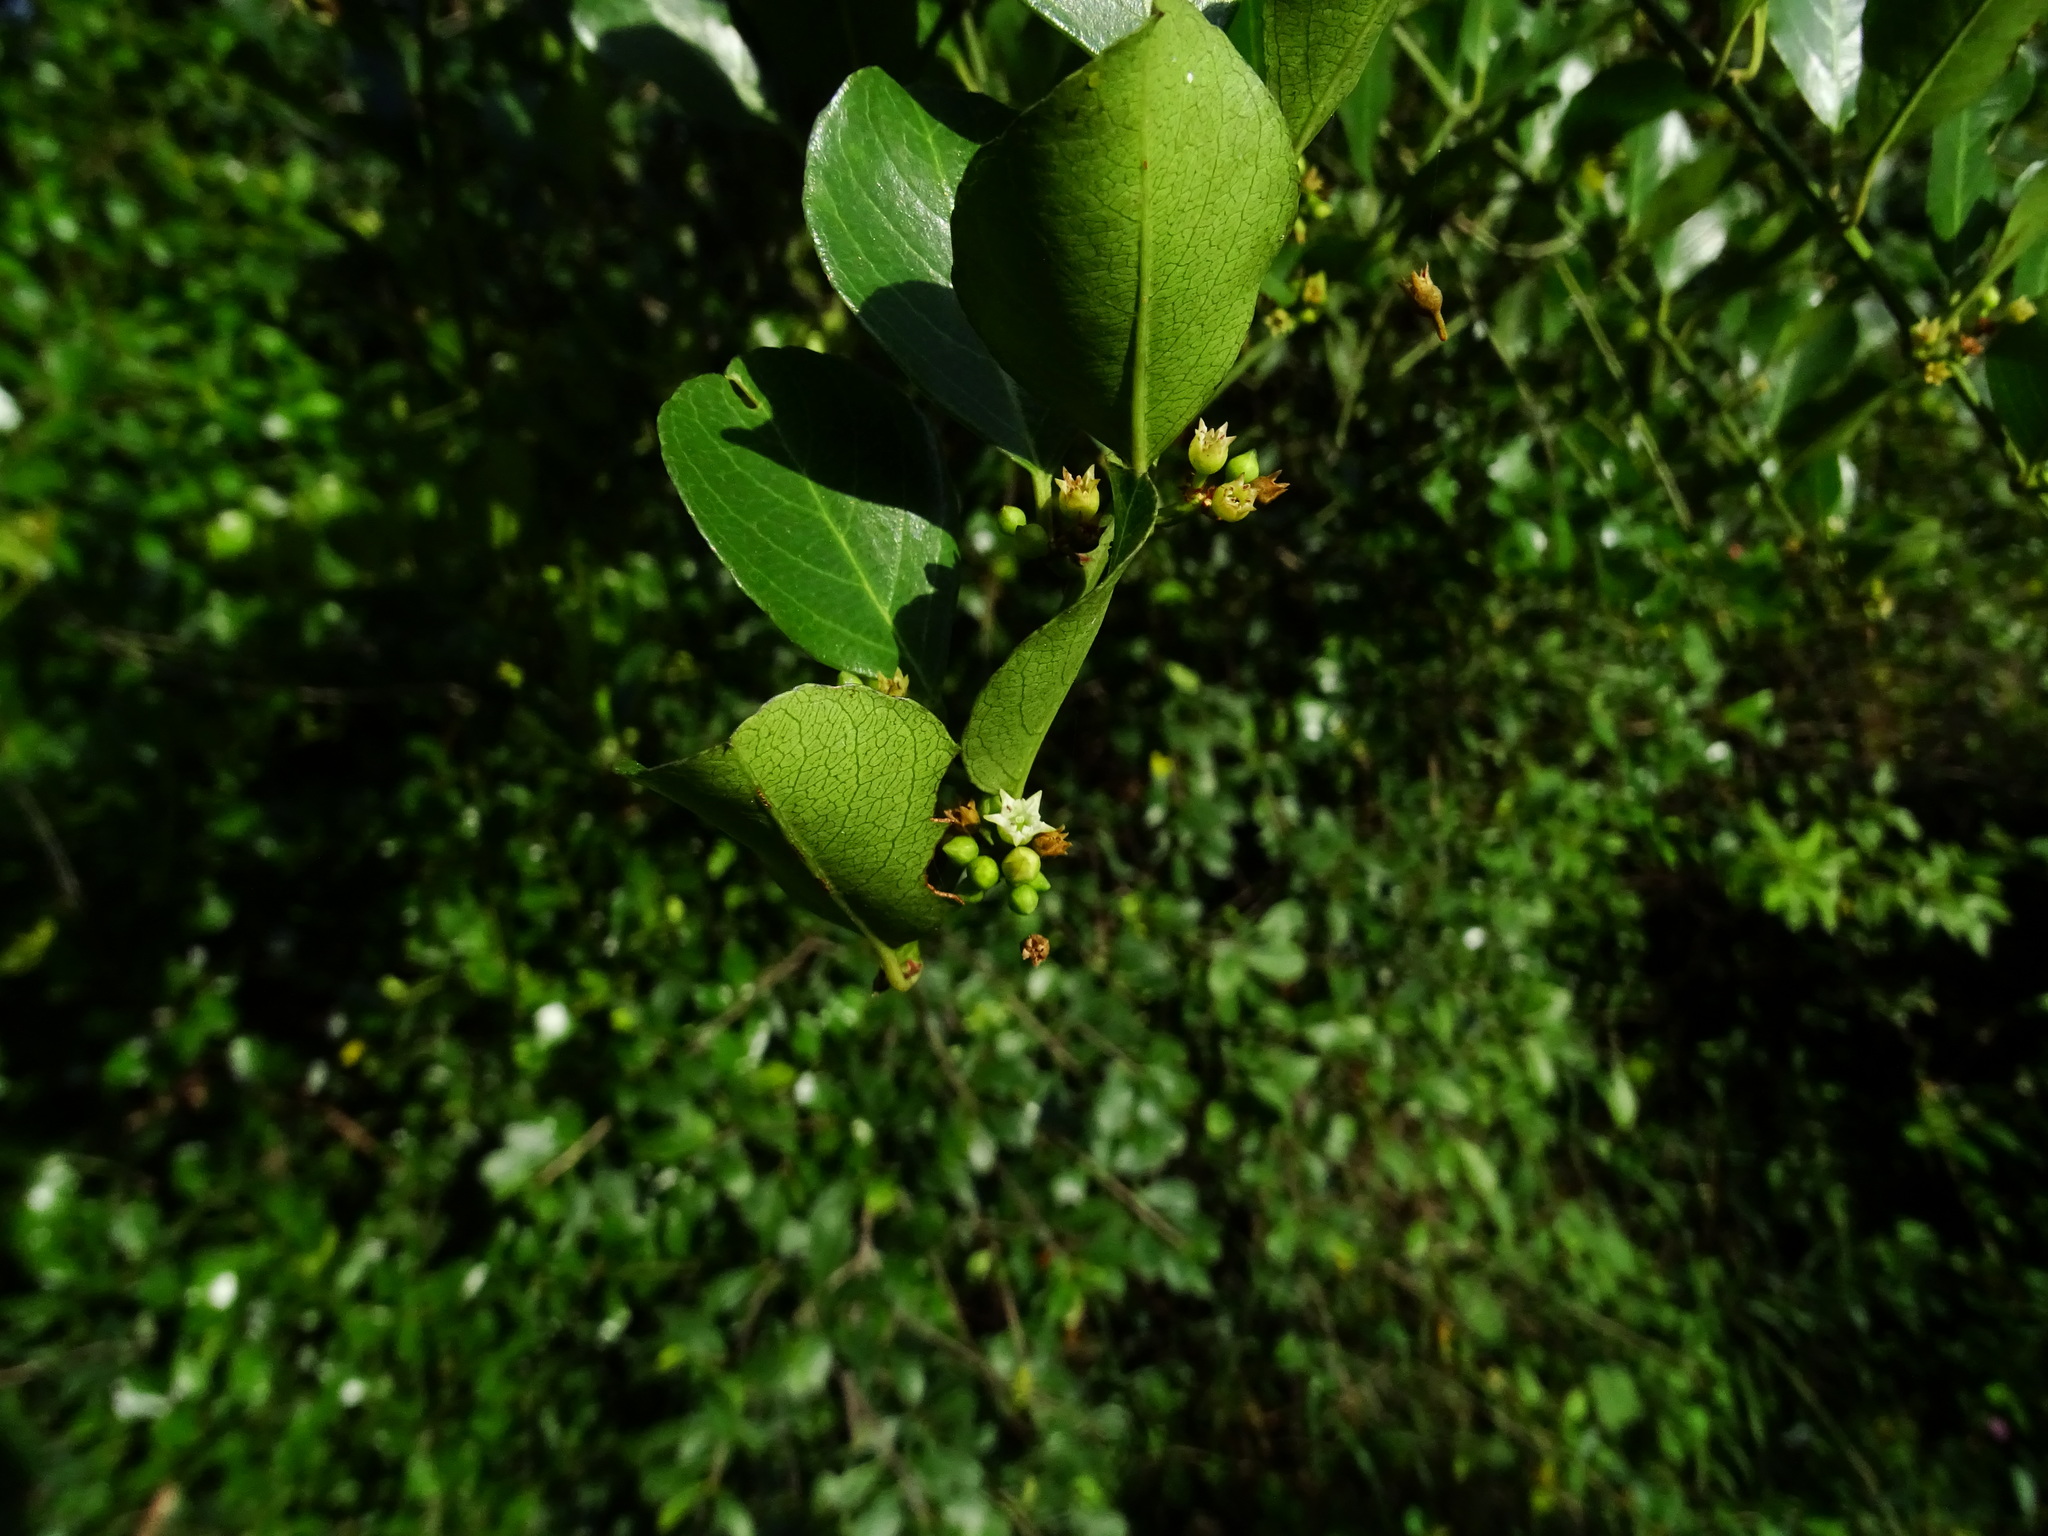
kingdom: Plantae
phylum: Tracheophyta
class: Magnoliopsida
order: Rosales
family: Rhamnaceae
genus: Scutia
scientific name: Scutia myrtina
